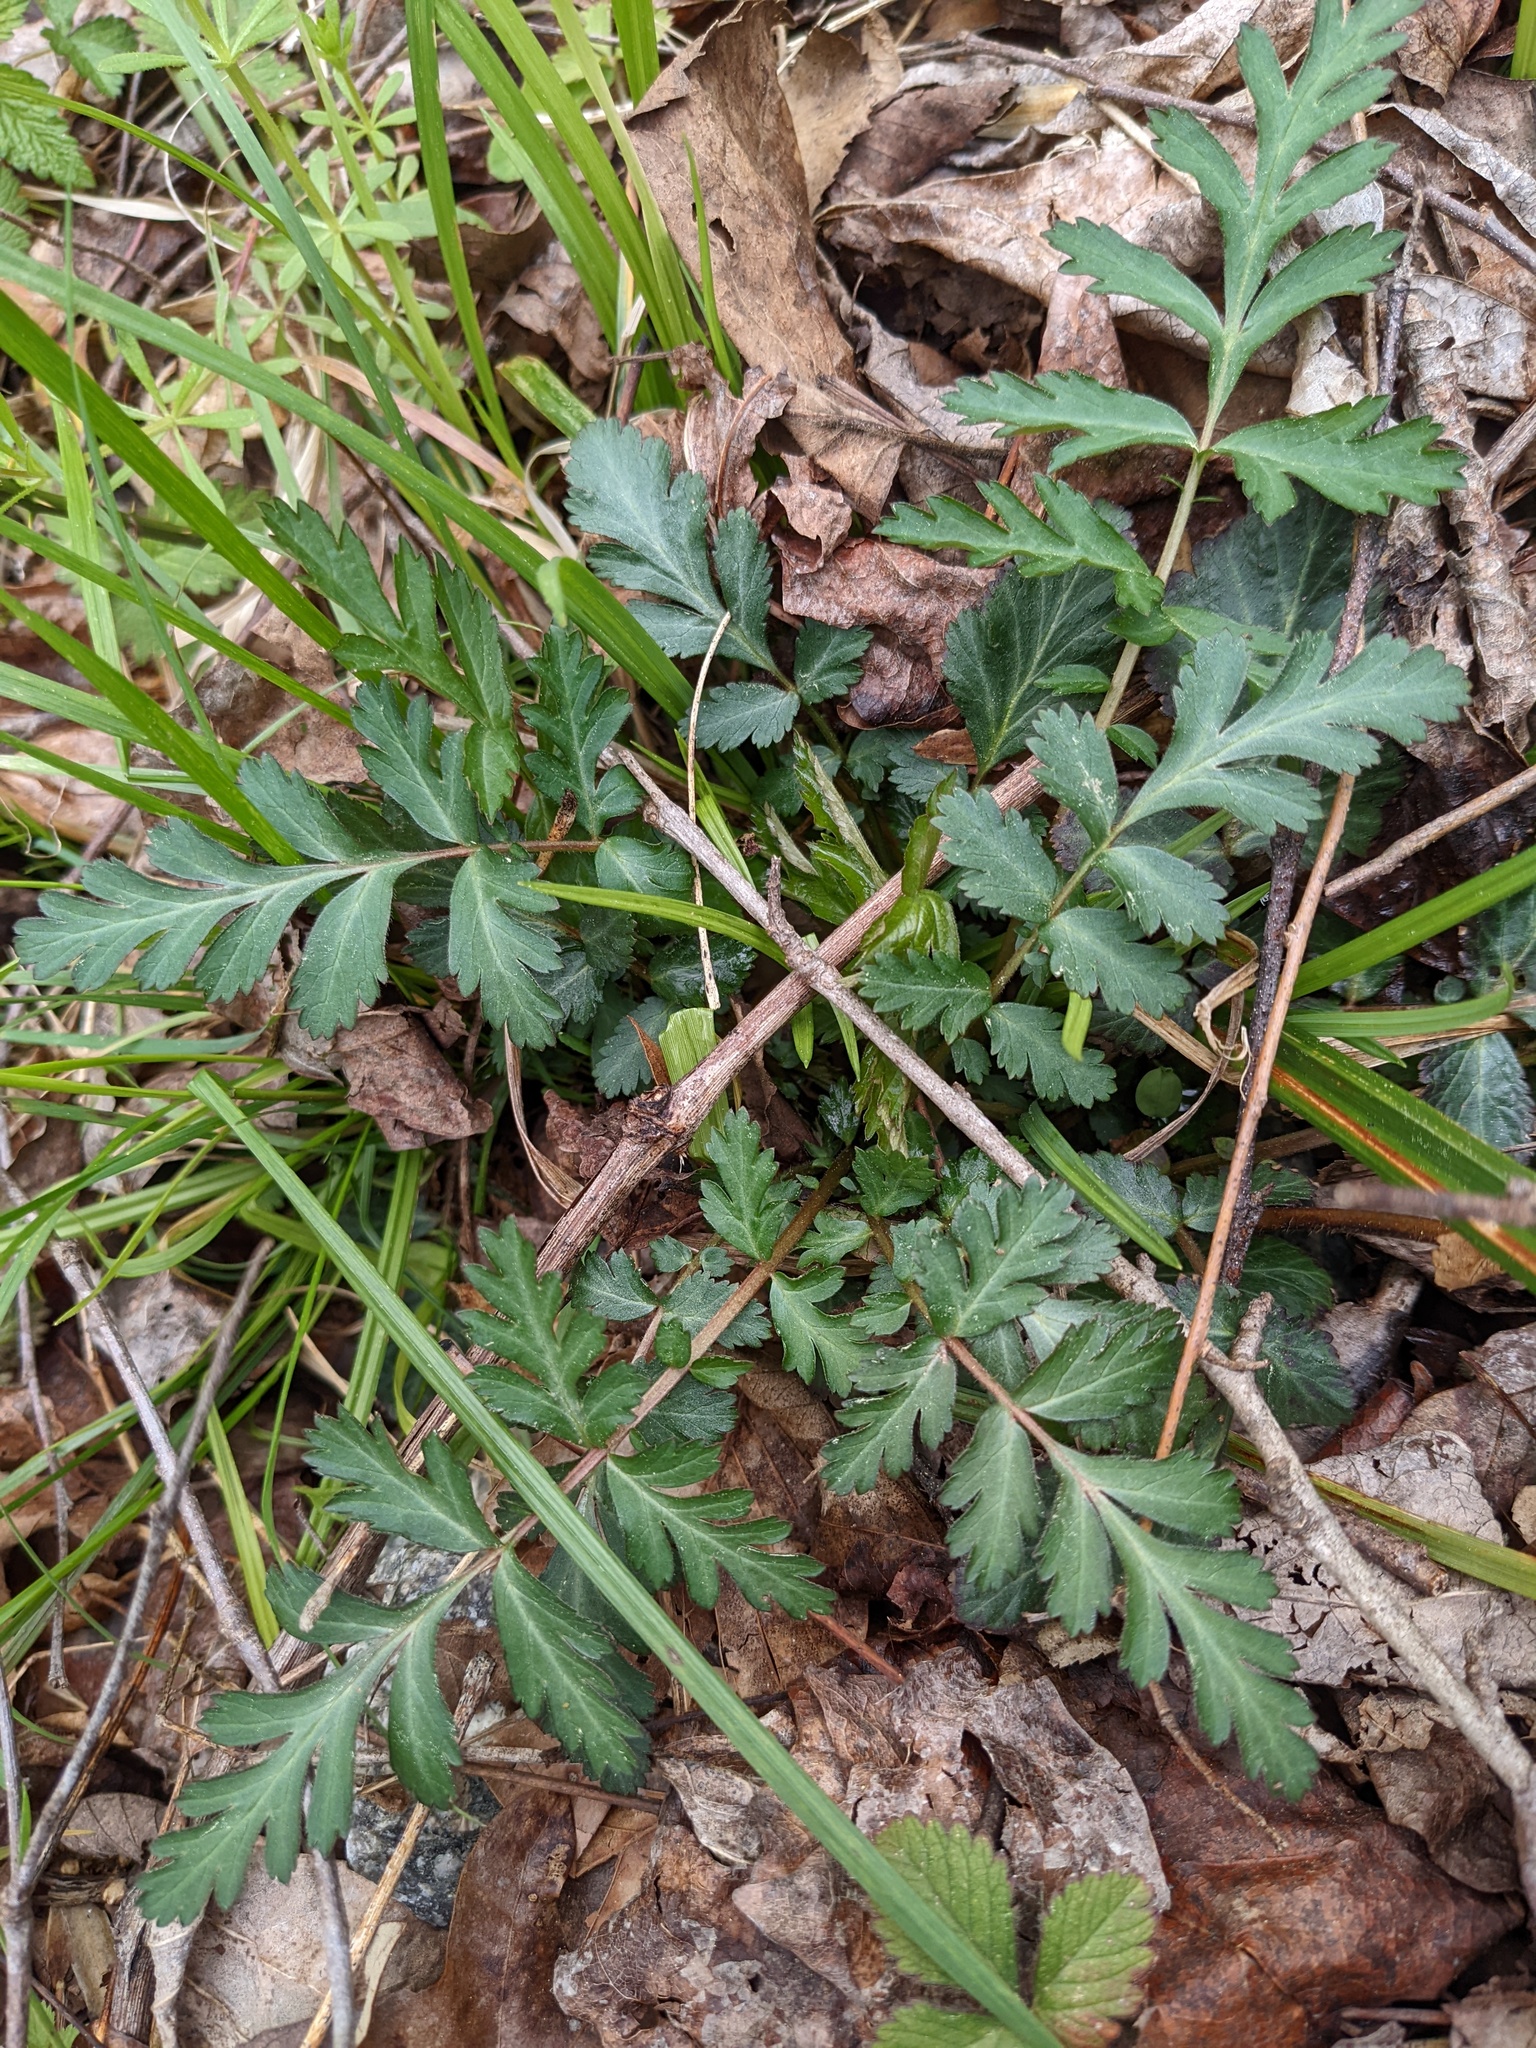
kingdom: Plantae
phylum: Tracheophyta
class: Magnoliopsida
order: Rosales
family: Rosaceae
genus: Geum
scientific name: Geum canadense
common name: White avens
